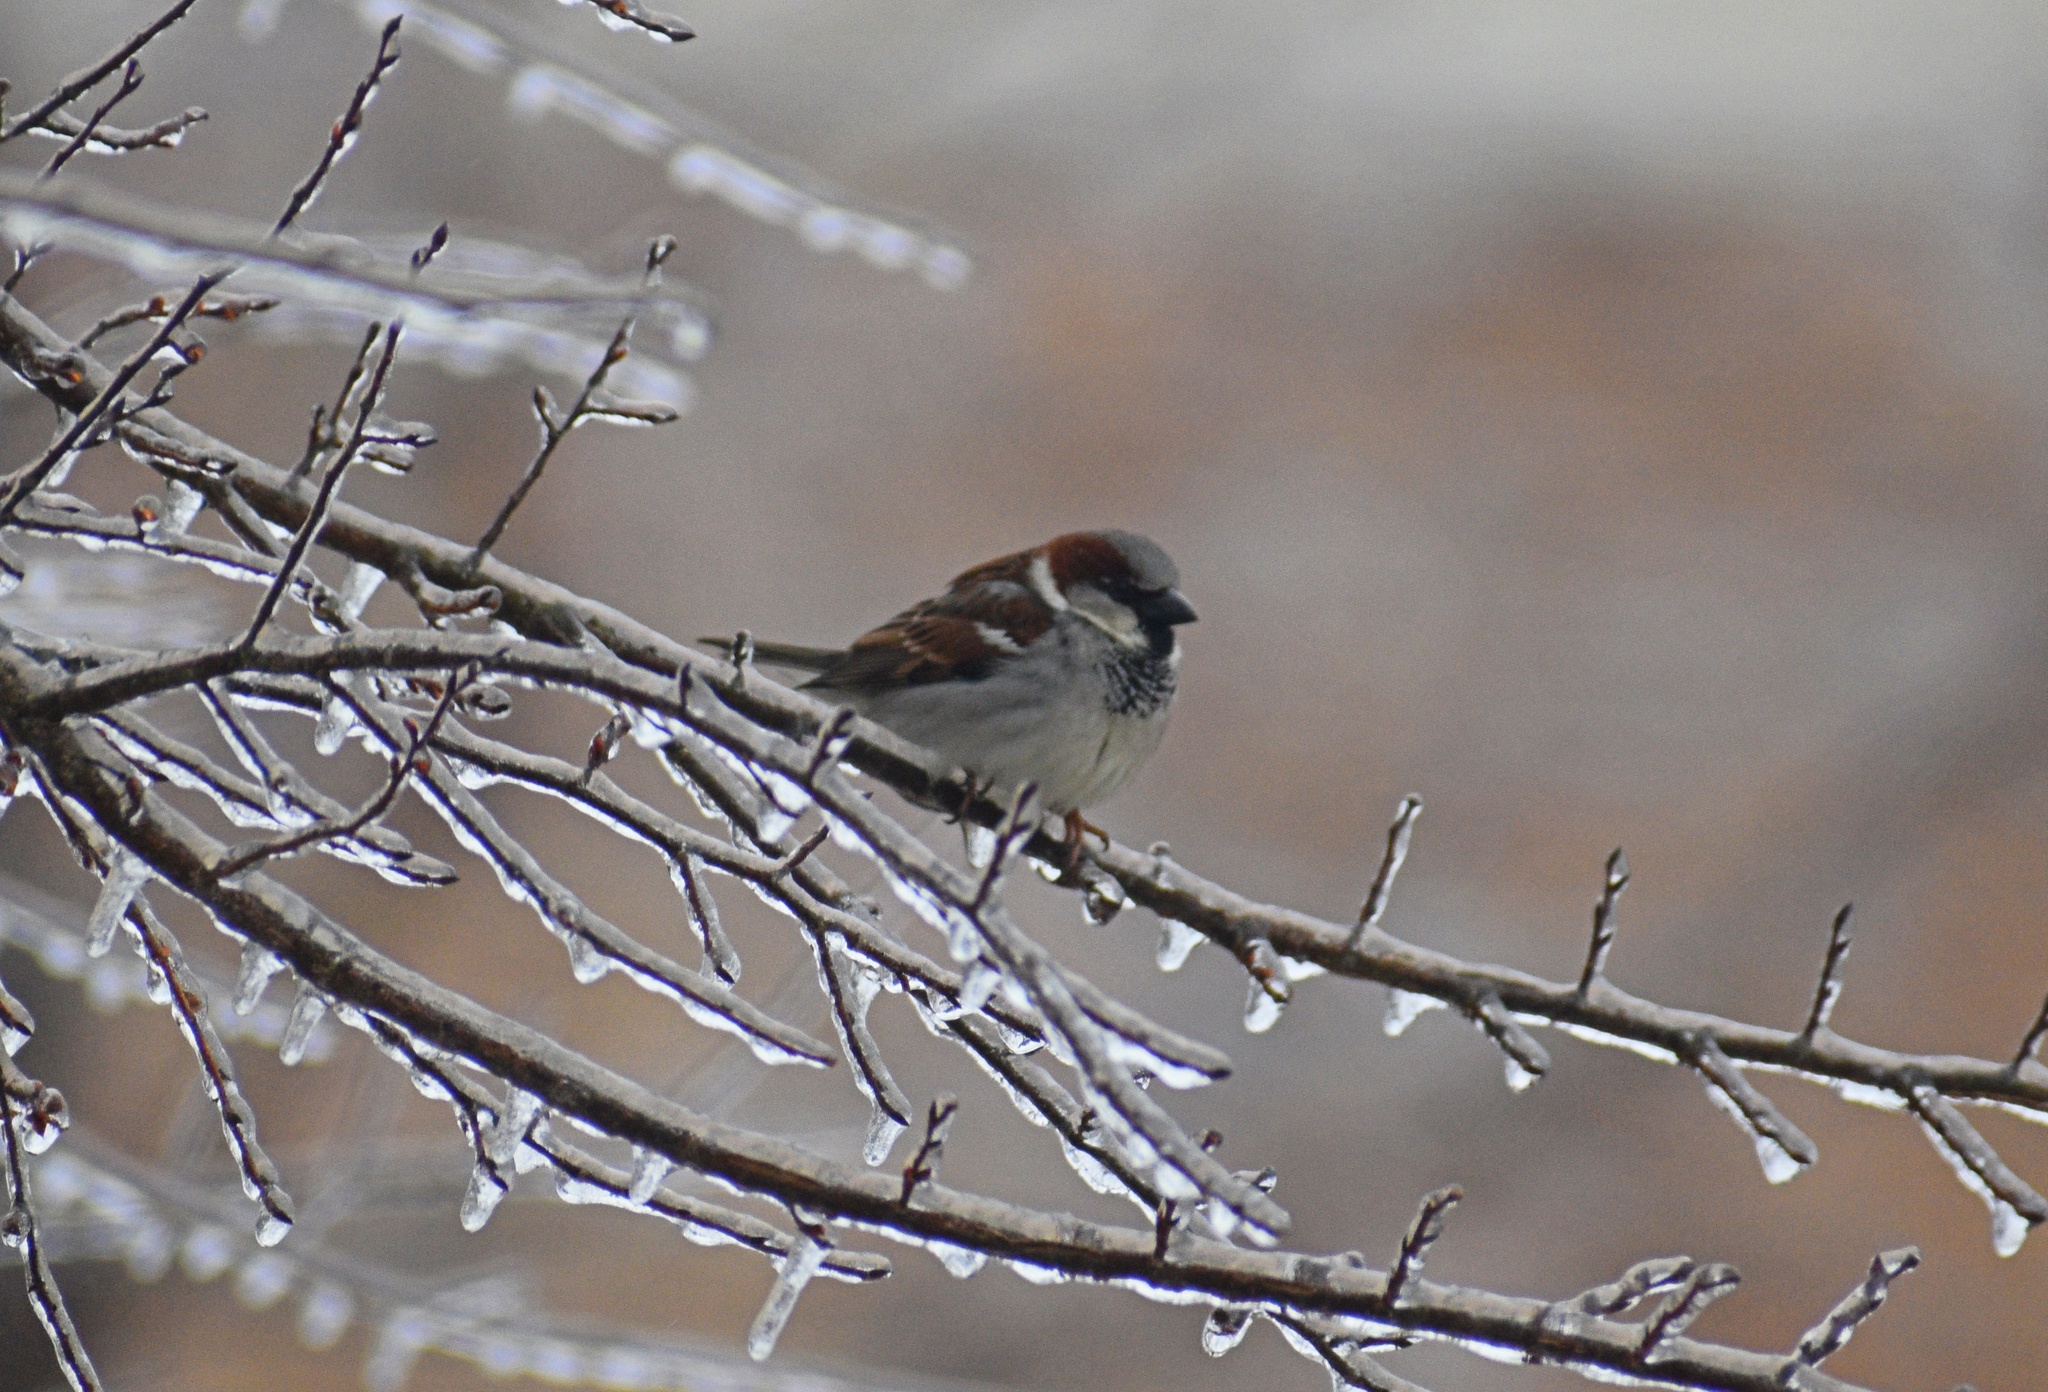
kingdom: Animalia
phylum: Chordata
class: Aves
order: Passeriformes
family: Passeridae
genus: Passer
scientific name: Passer domesticus
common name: House sparrow
